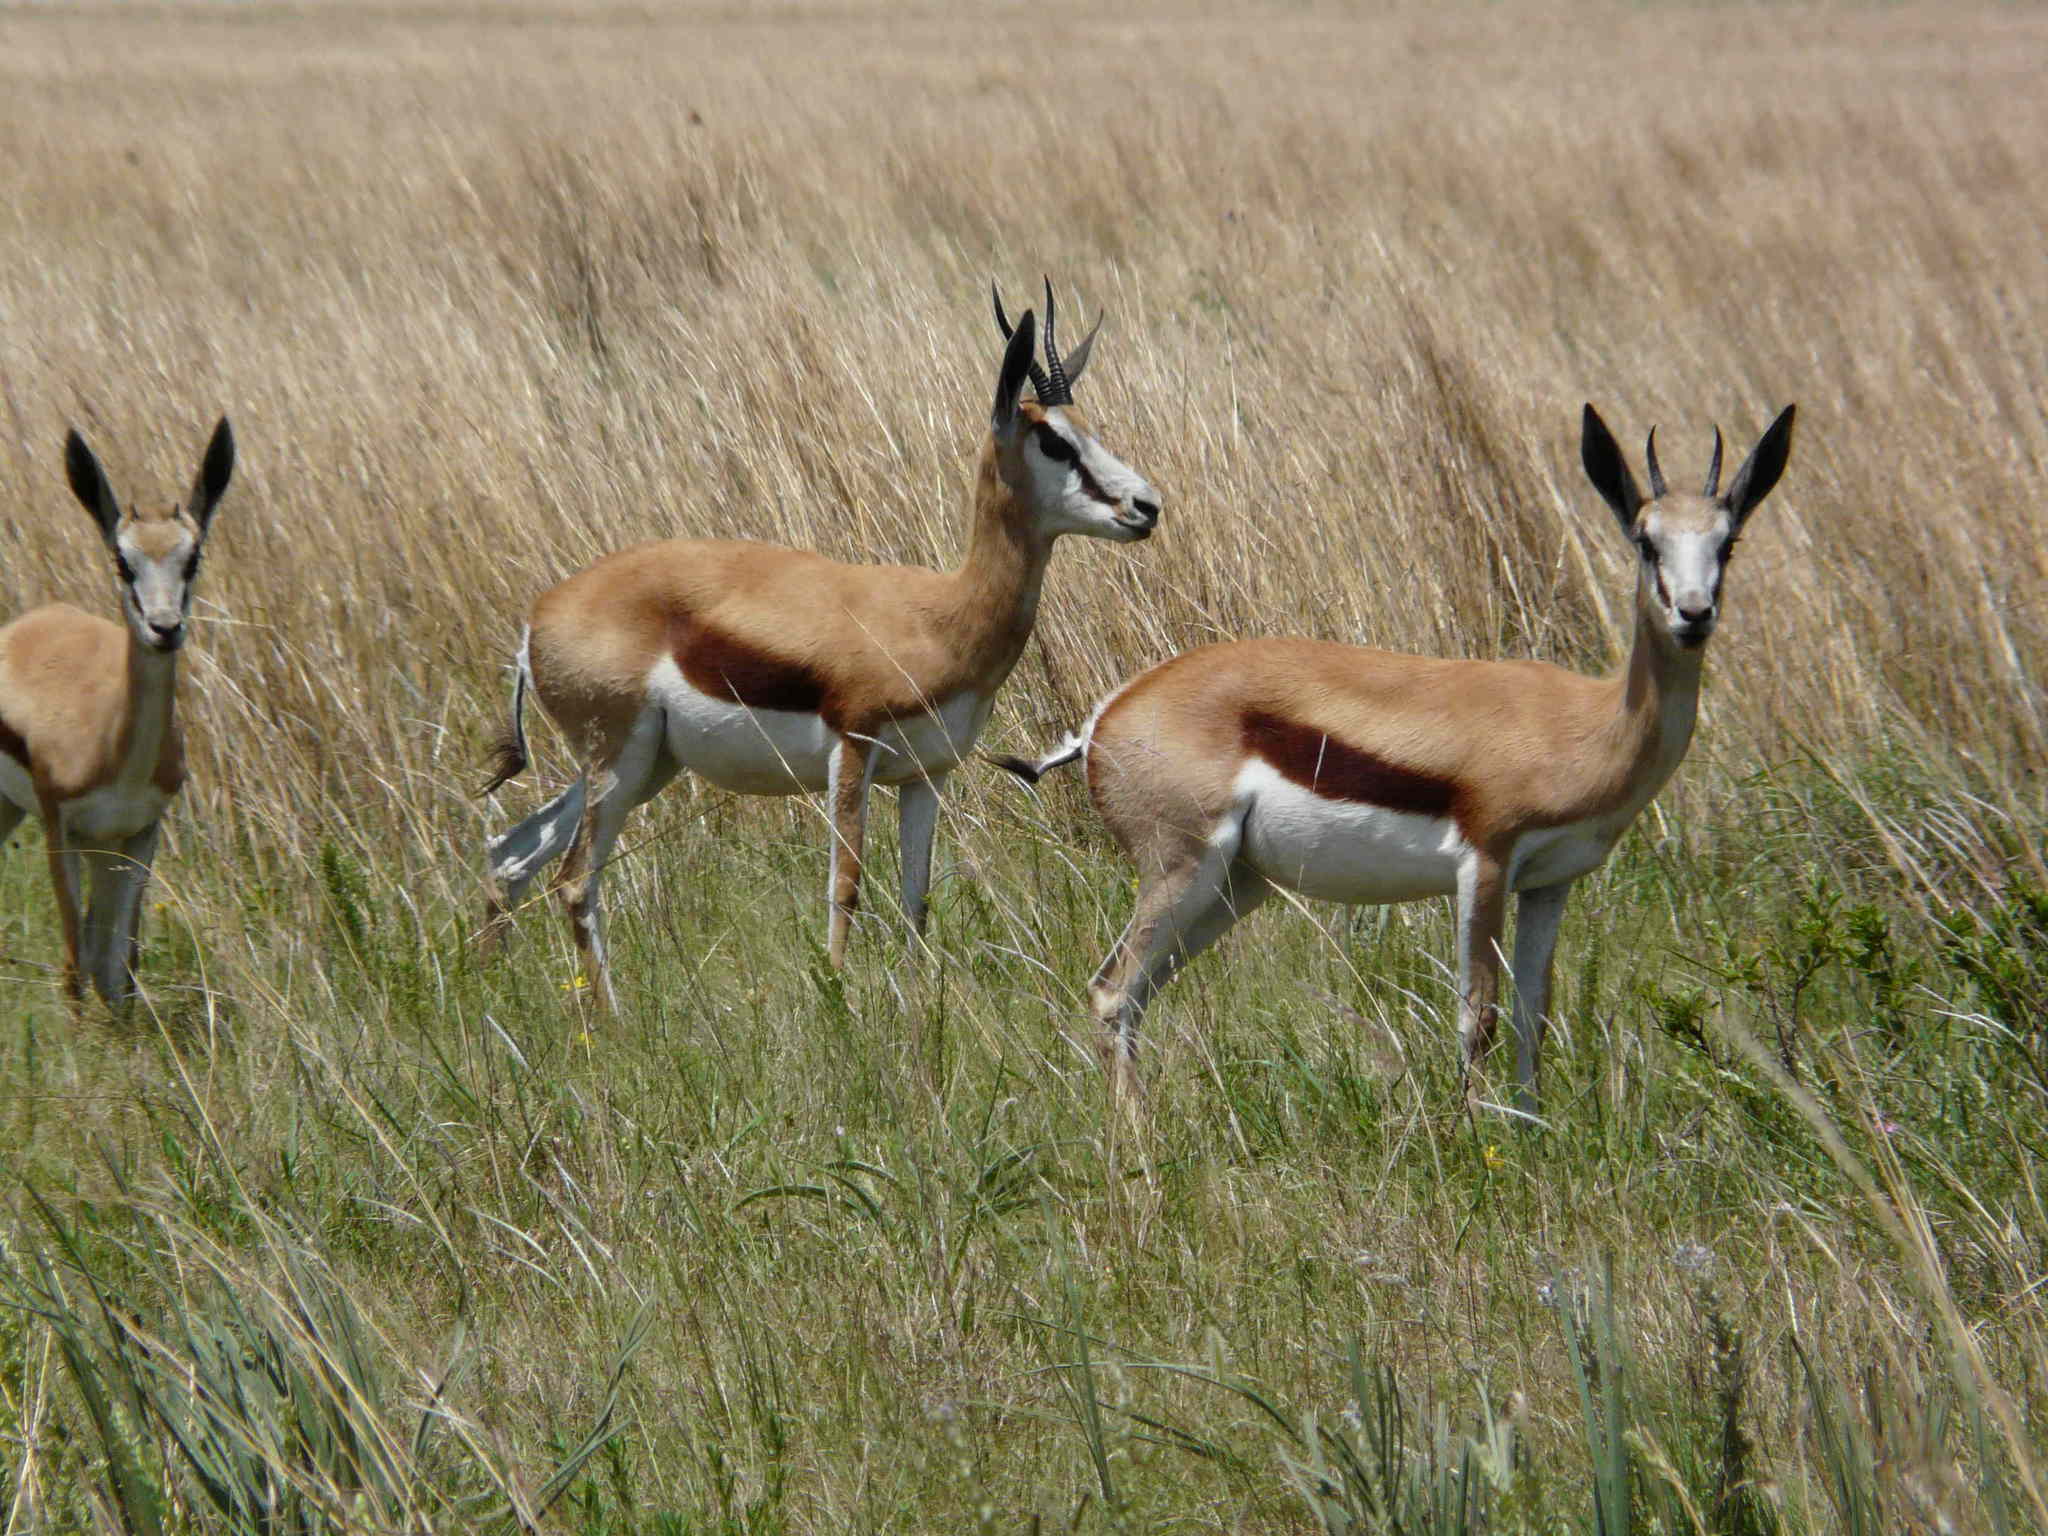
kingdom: Animalia
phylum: Chordata
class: Mammalia
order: Artiodactyla
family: Bovidae
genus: Antidorcas
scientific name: Antidorcas marsupialis
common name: Springbok
